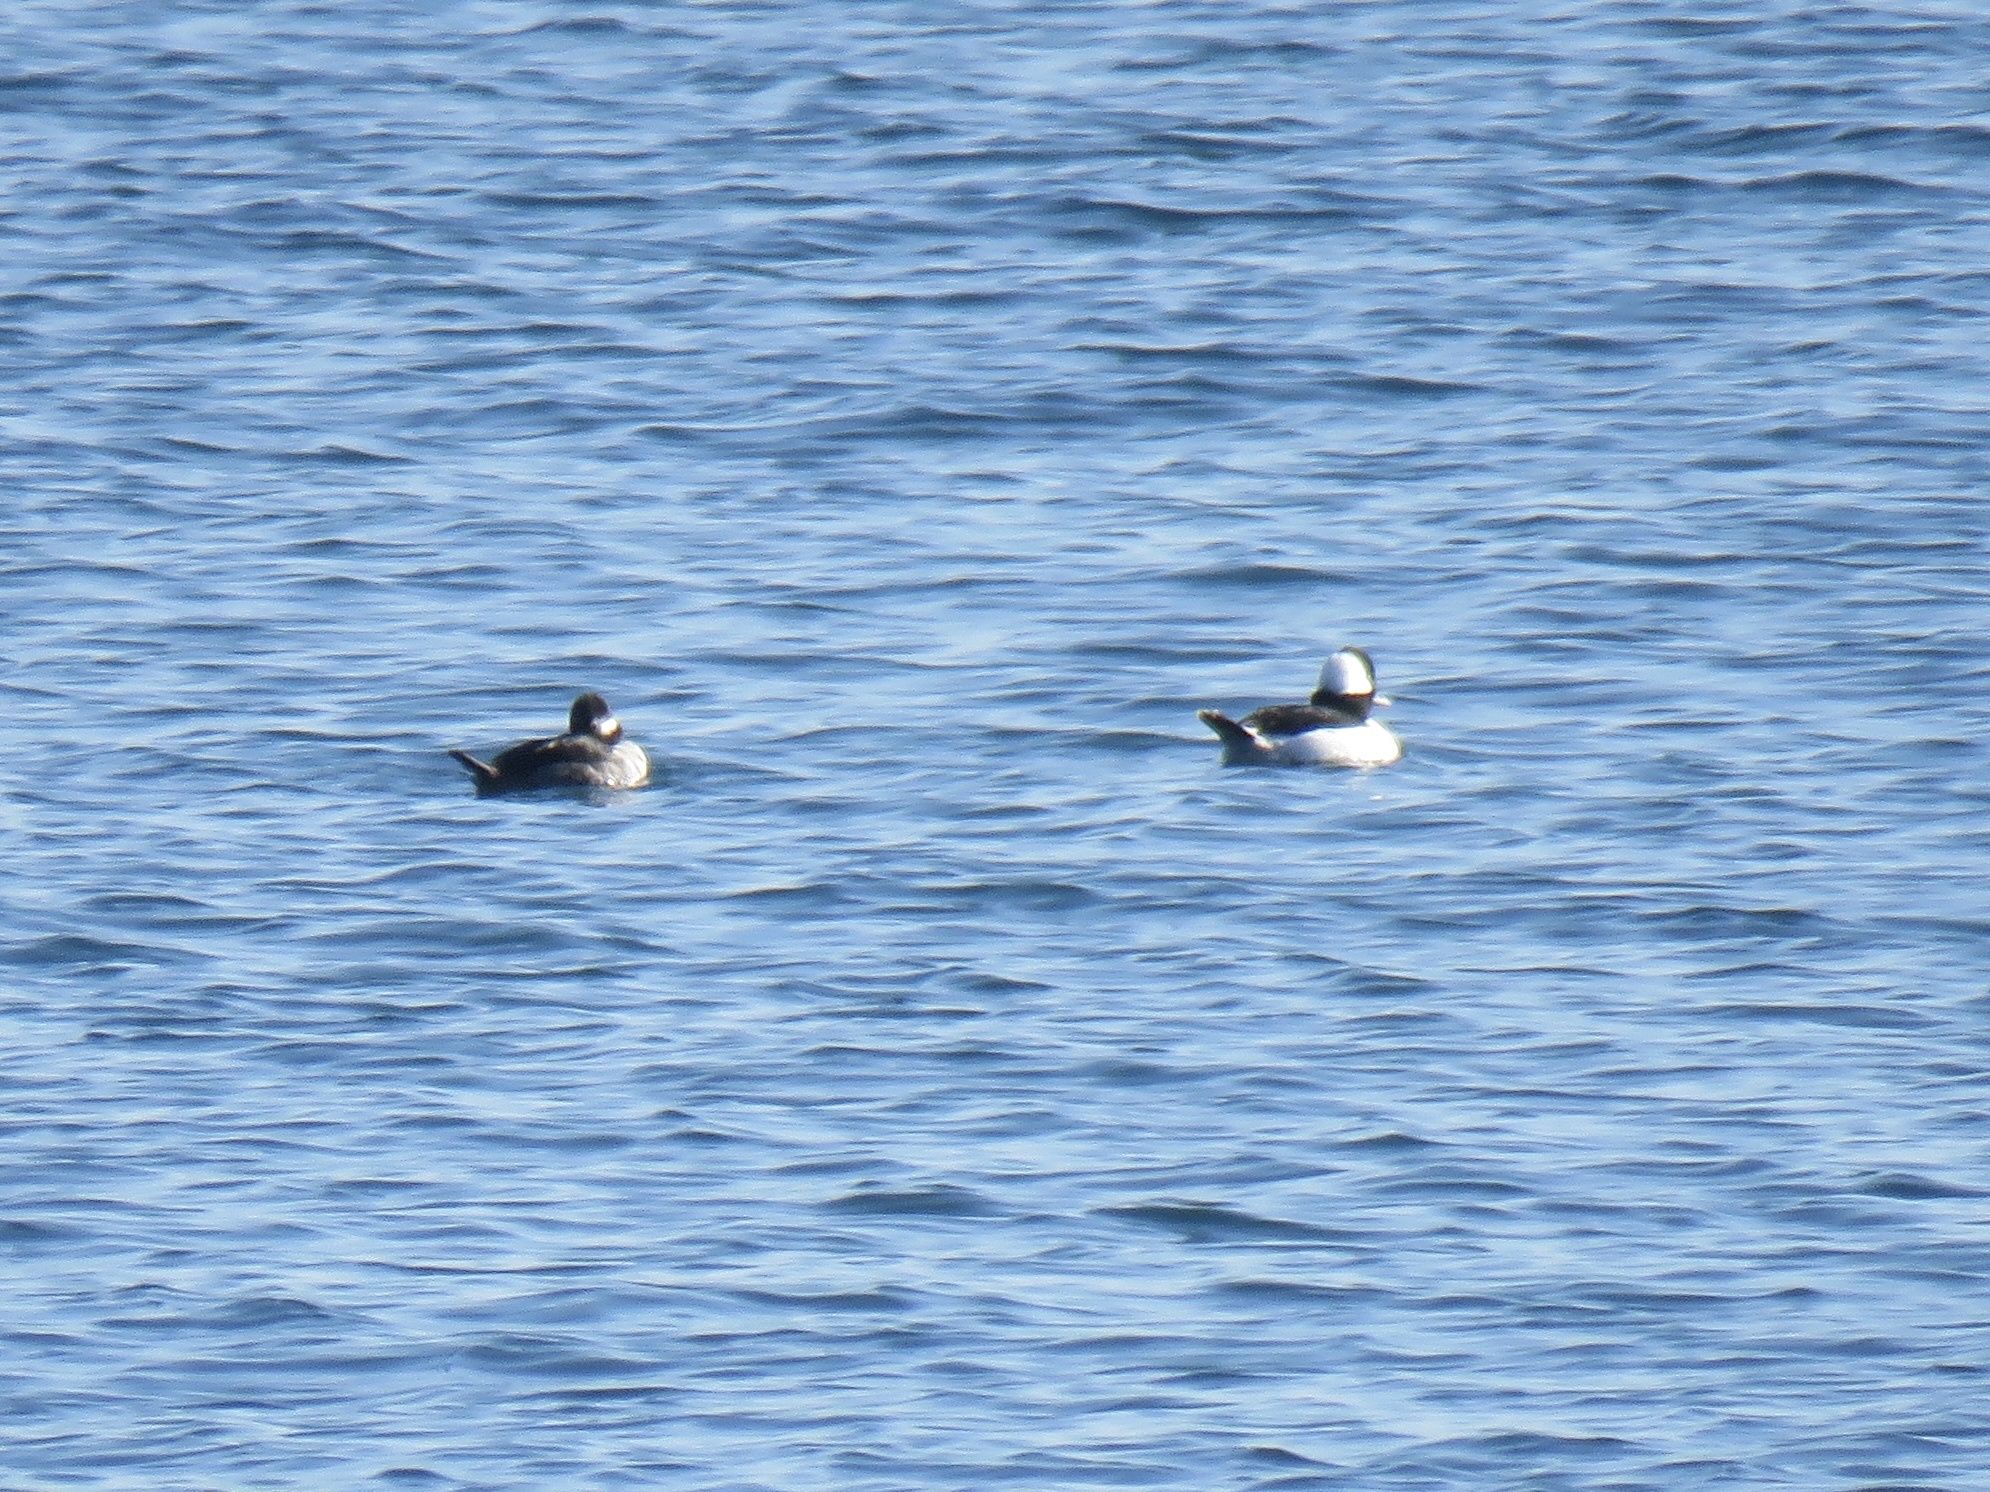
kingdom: Animalia
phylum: Chordata
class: Aves
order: Anseriformes
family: Anatidae
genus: Bucephala
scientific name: Bucephala albeola
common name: Bufflehead
